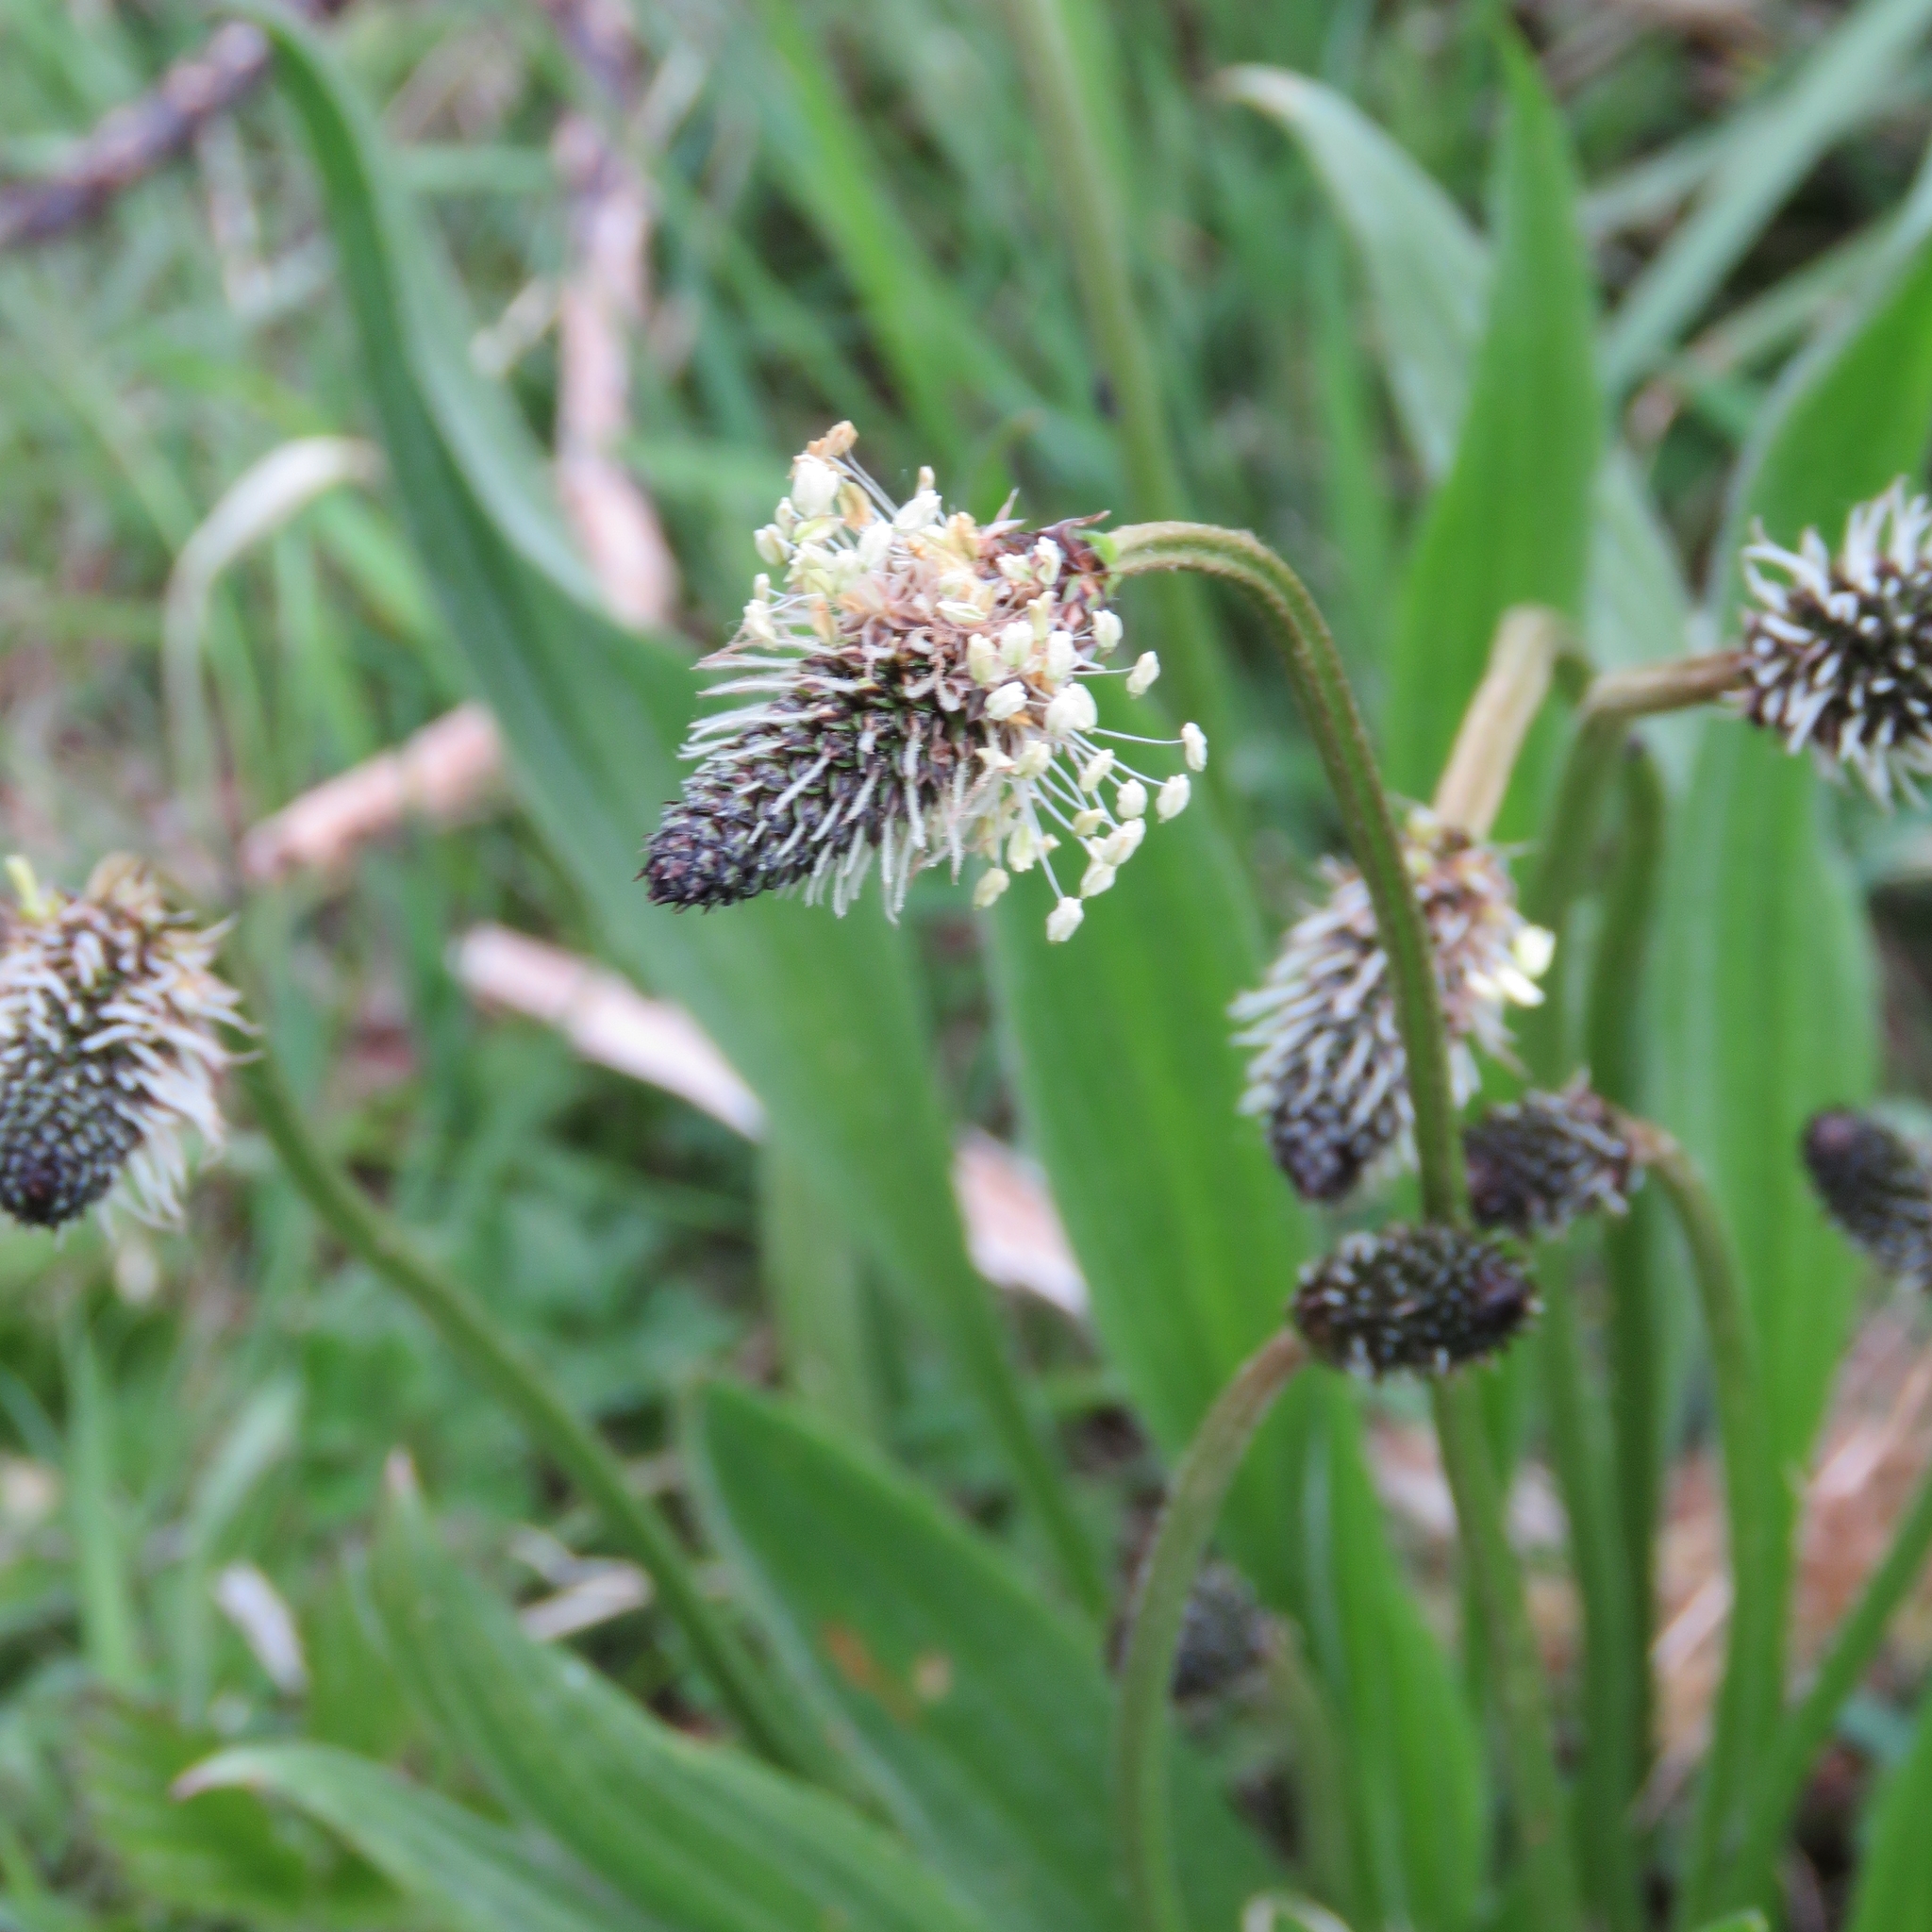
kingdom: Plantae
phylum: Tracheophyta
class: Magnoliopsida
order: Lamiales
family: Plantaginaceae
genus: Plantago
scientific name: Plantago lanceolata
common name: Ribwort plantain
